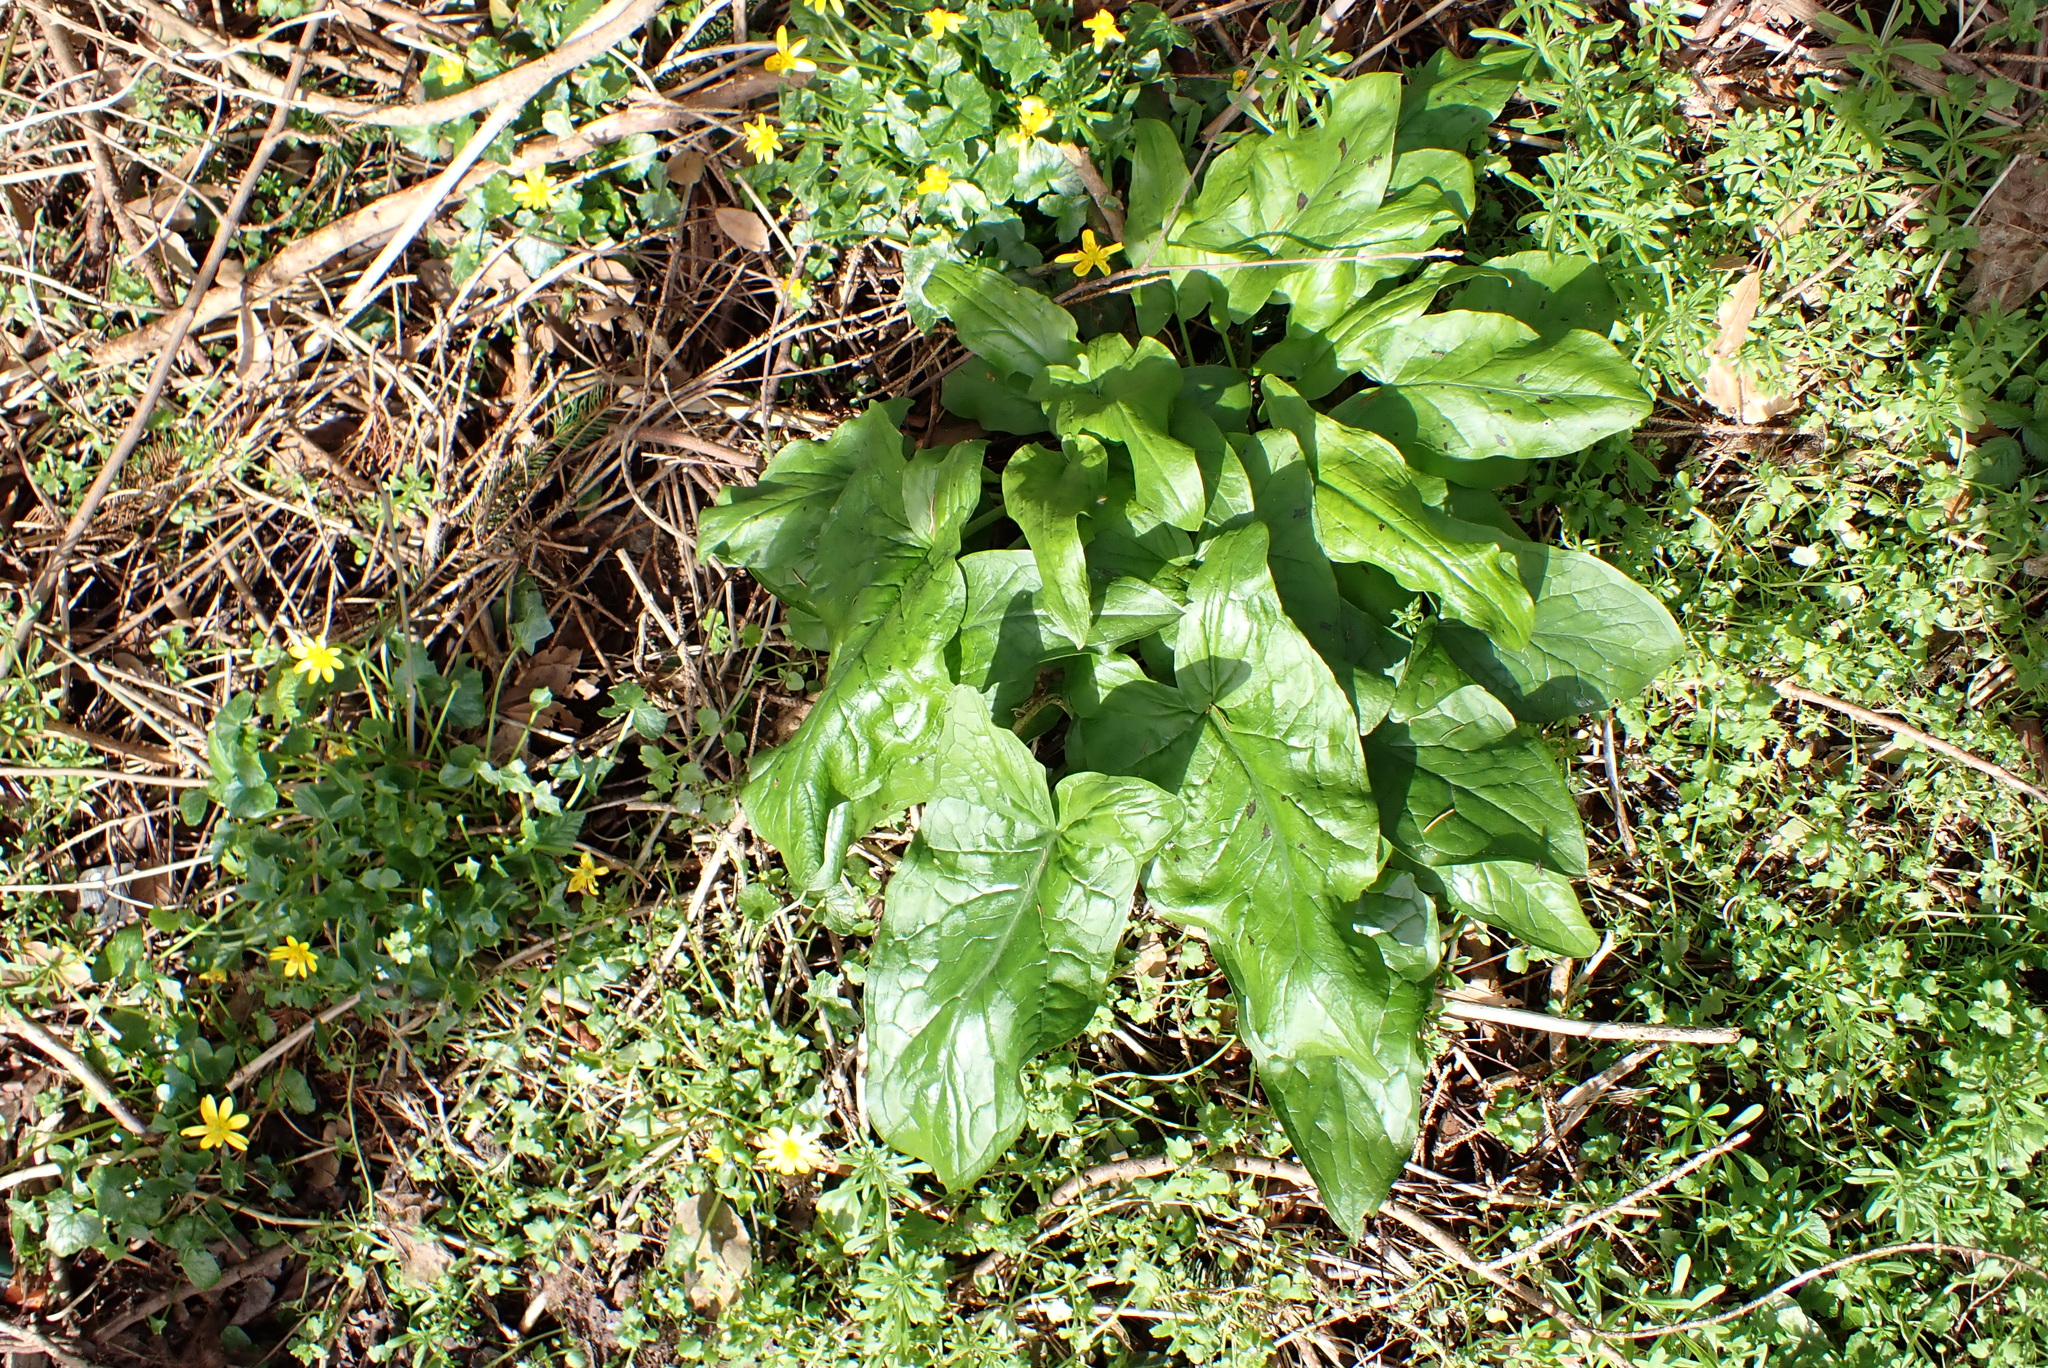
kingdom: Plantae
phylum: Tracheophyta
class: Liliopsida
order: Alismatales
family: Araceae
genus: Arum
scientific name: Arum maculatum
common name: Lords-and-ladies
